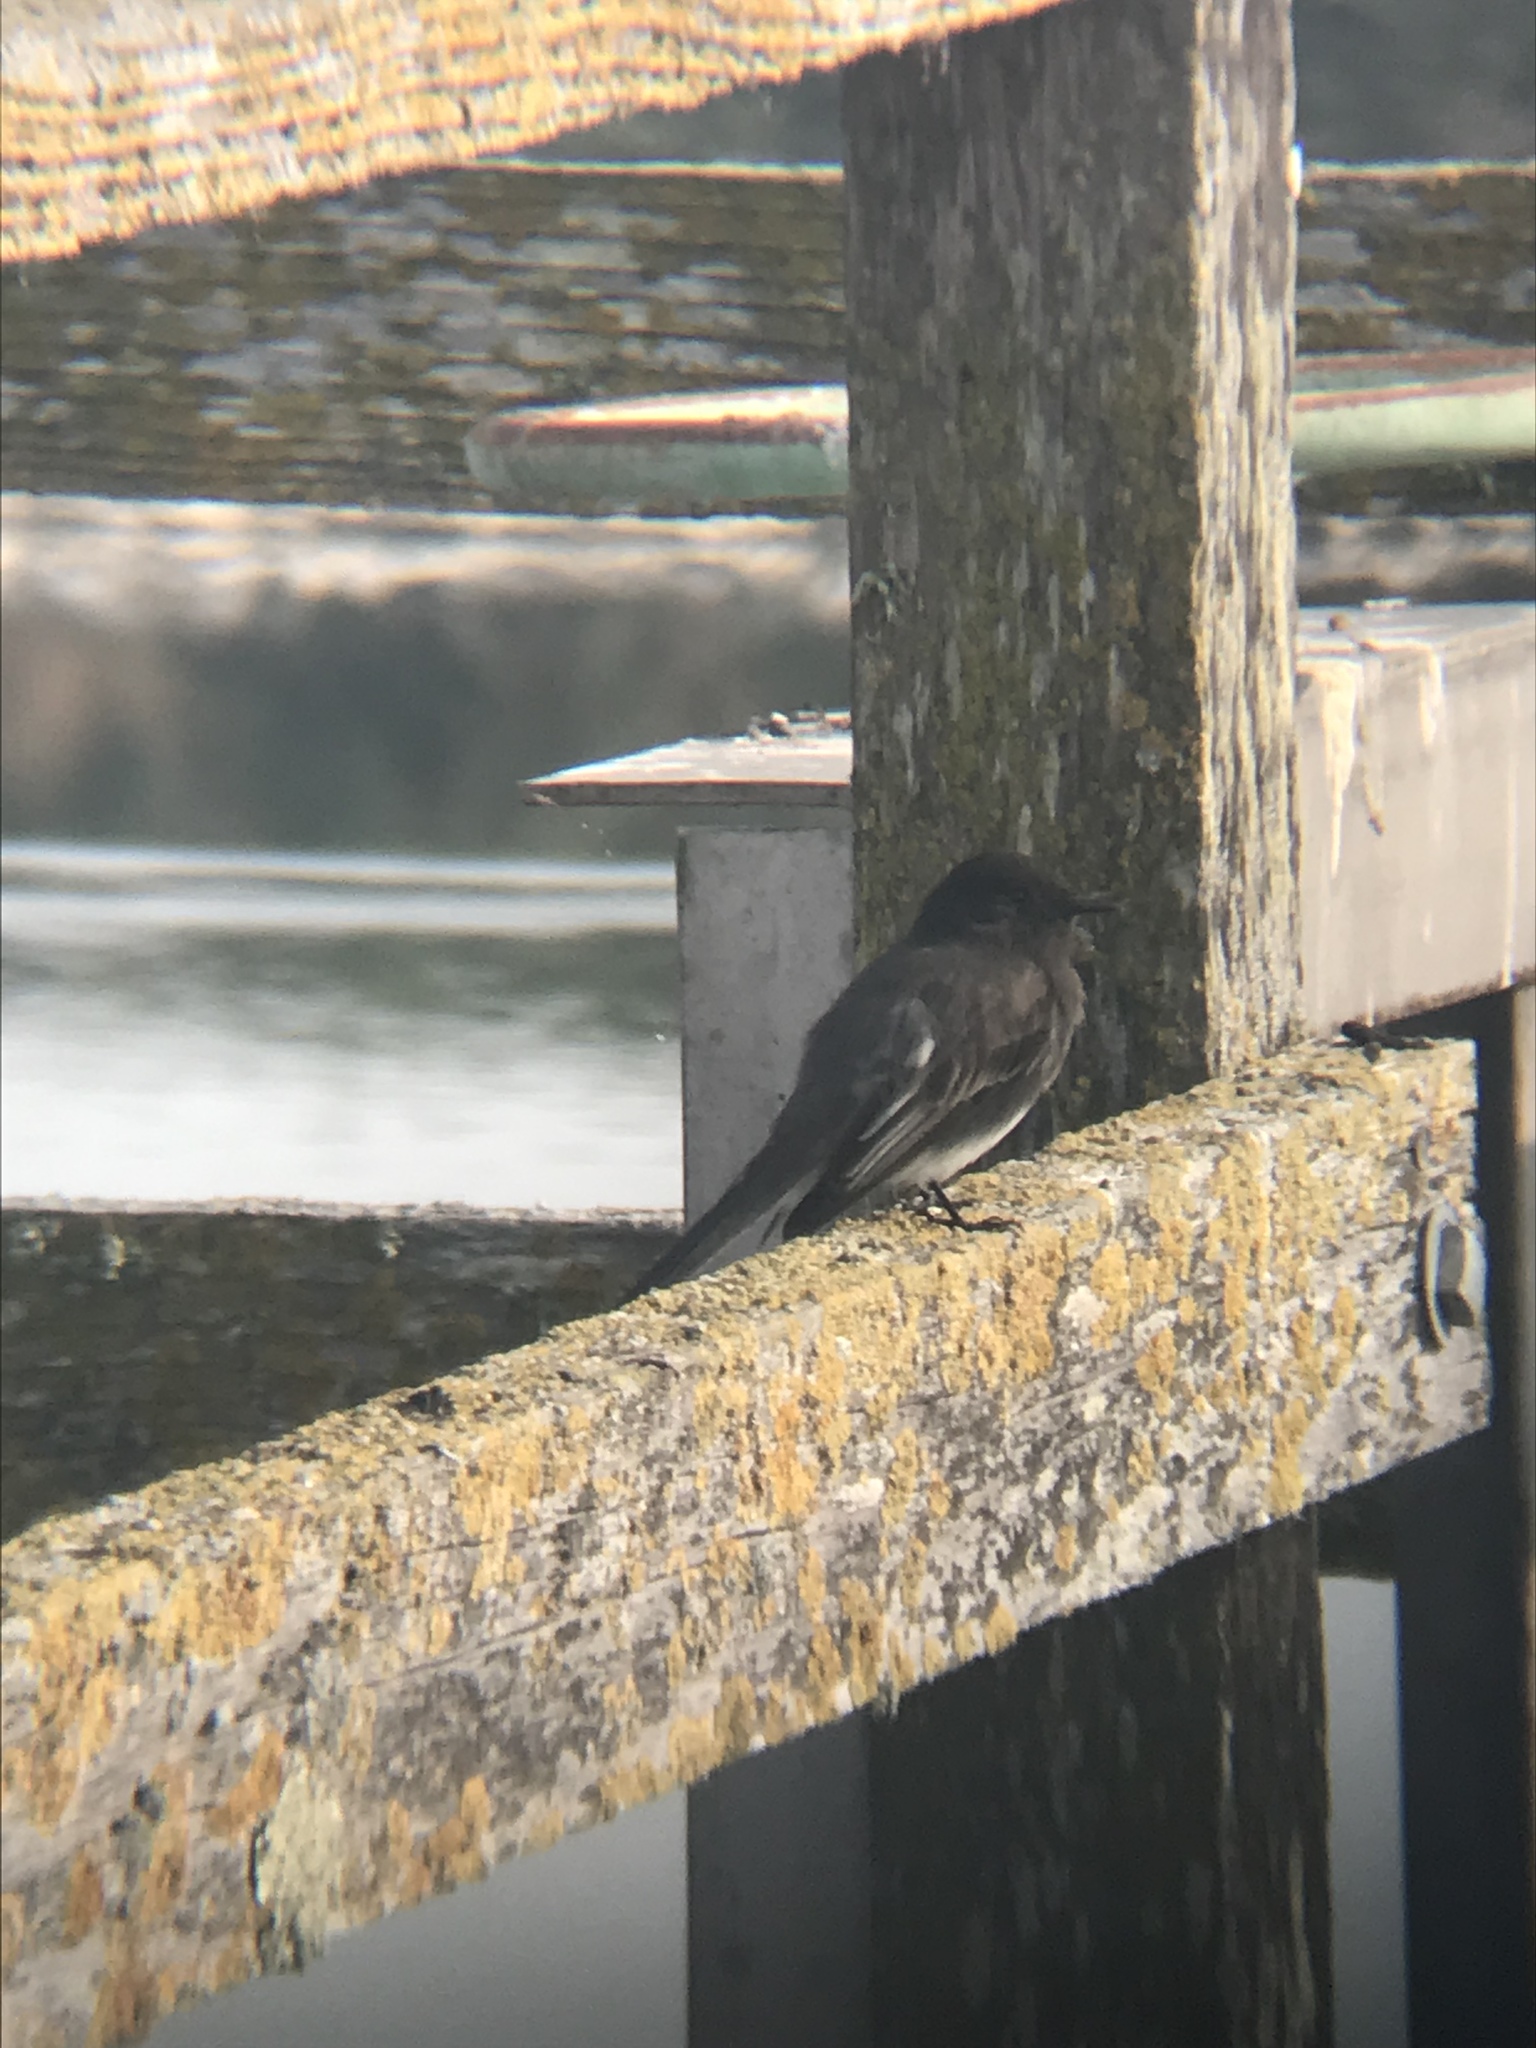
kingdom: Animalia
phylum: Chordata
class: Aves
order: Passeriformes
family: Tyrannidae
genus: Sayornis
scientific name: Sayornis nigricans
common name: Black phoebe
